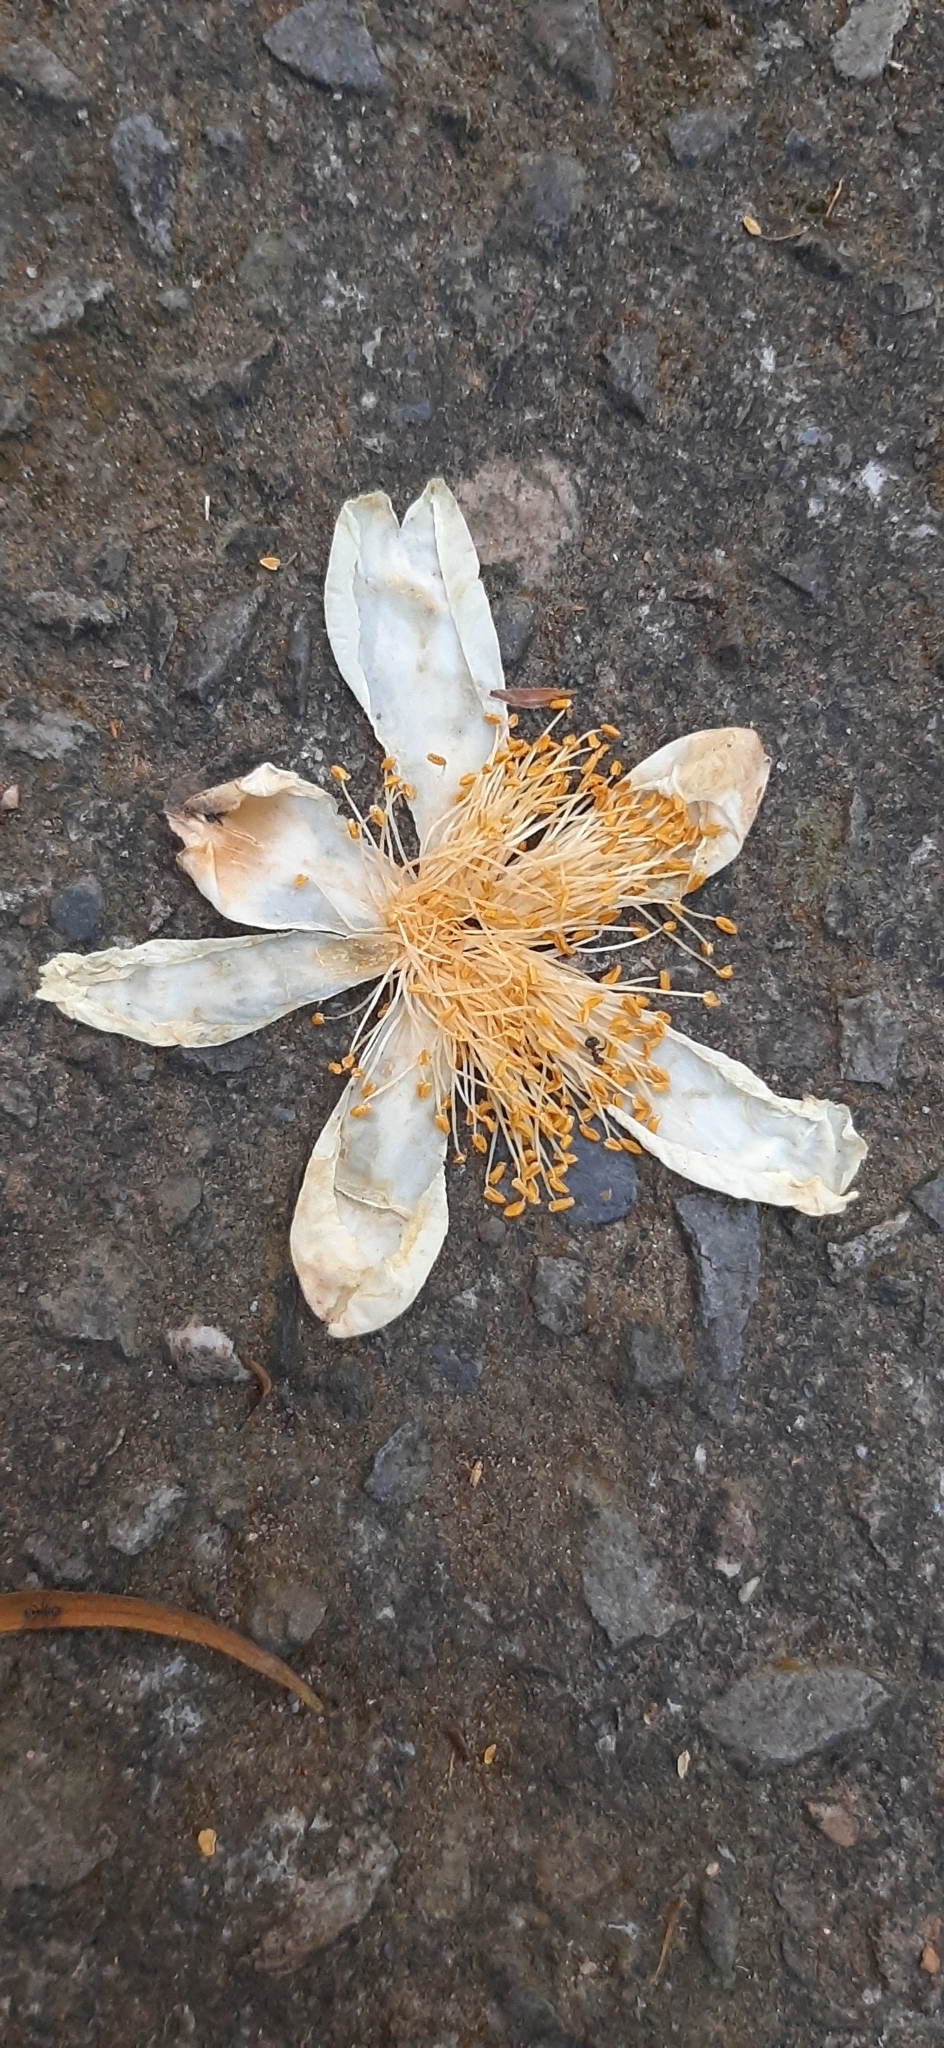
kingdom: Plantae
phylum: Tracheophyta
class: Magnoliopsida
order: Ericales
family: Theaceae
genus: Polyspora
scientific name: Polyspora axillaris
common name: Fried egg tree
